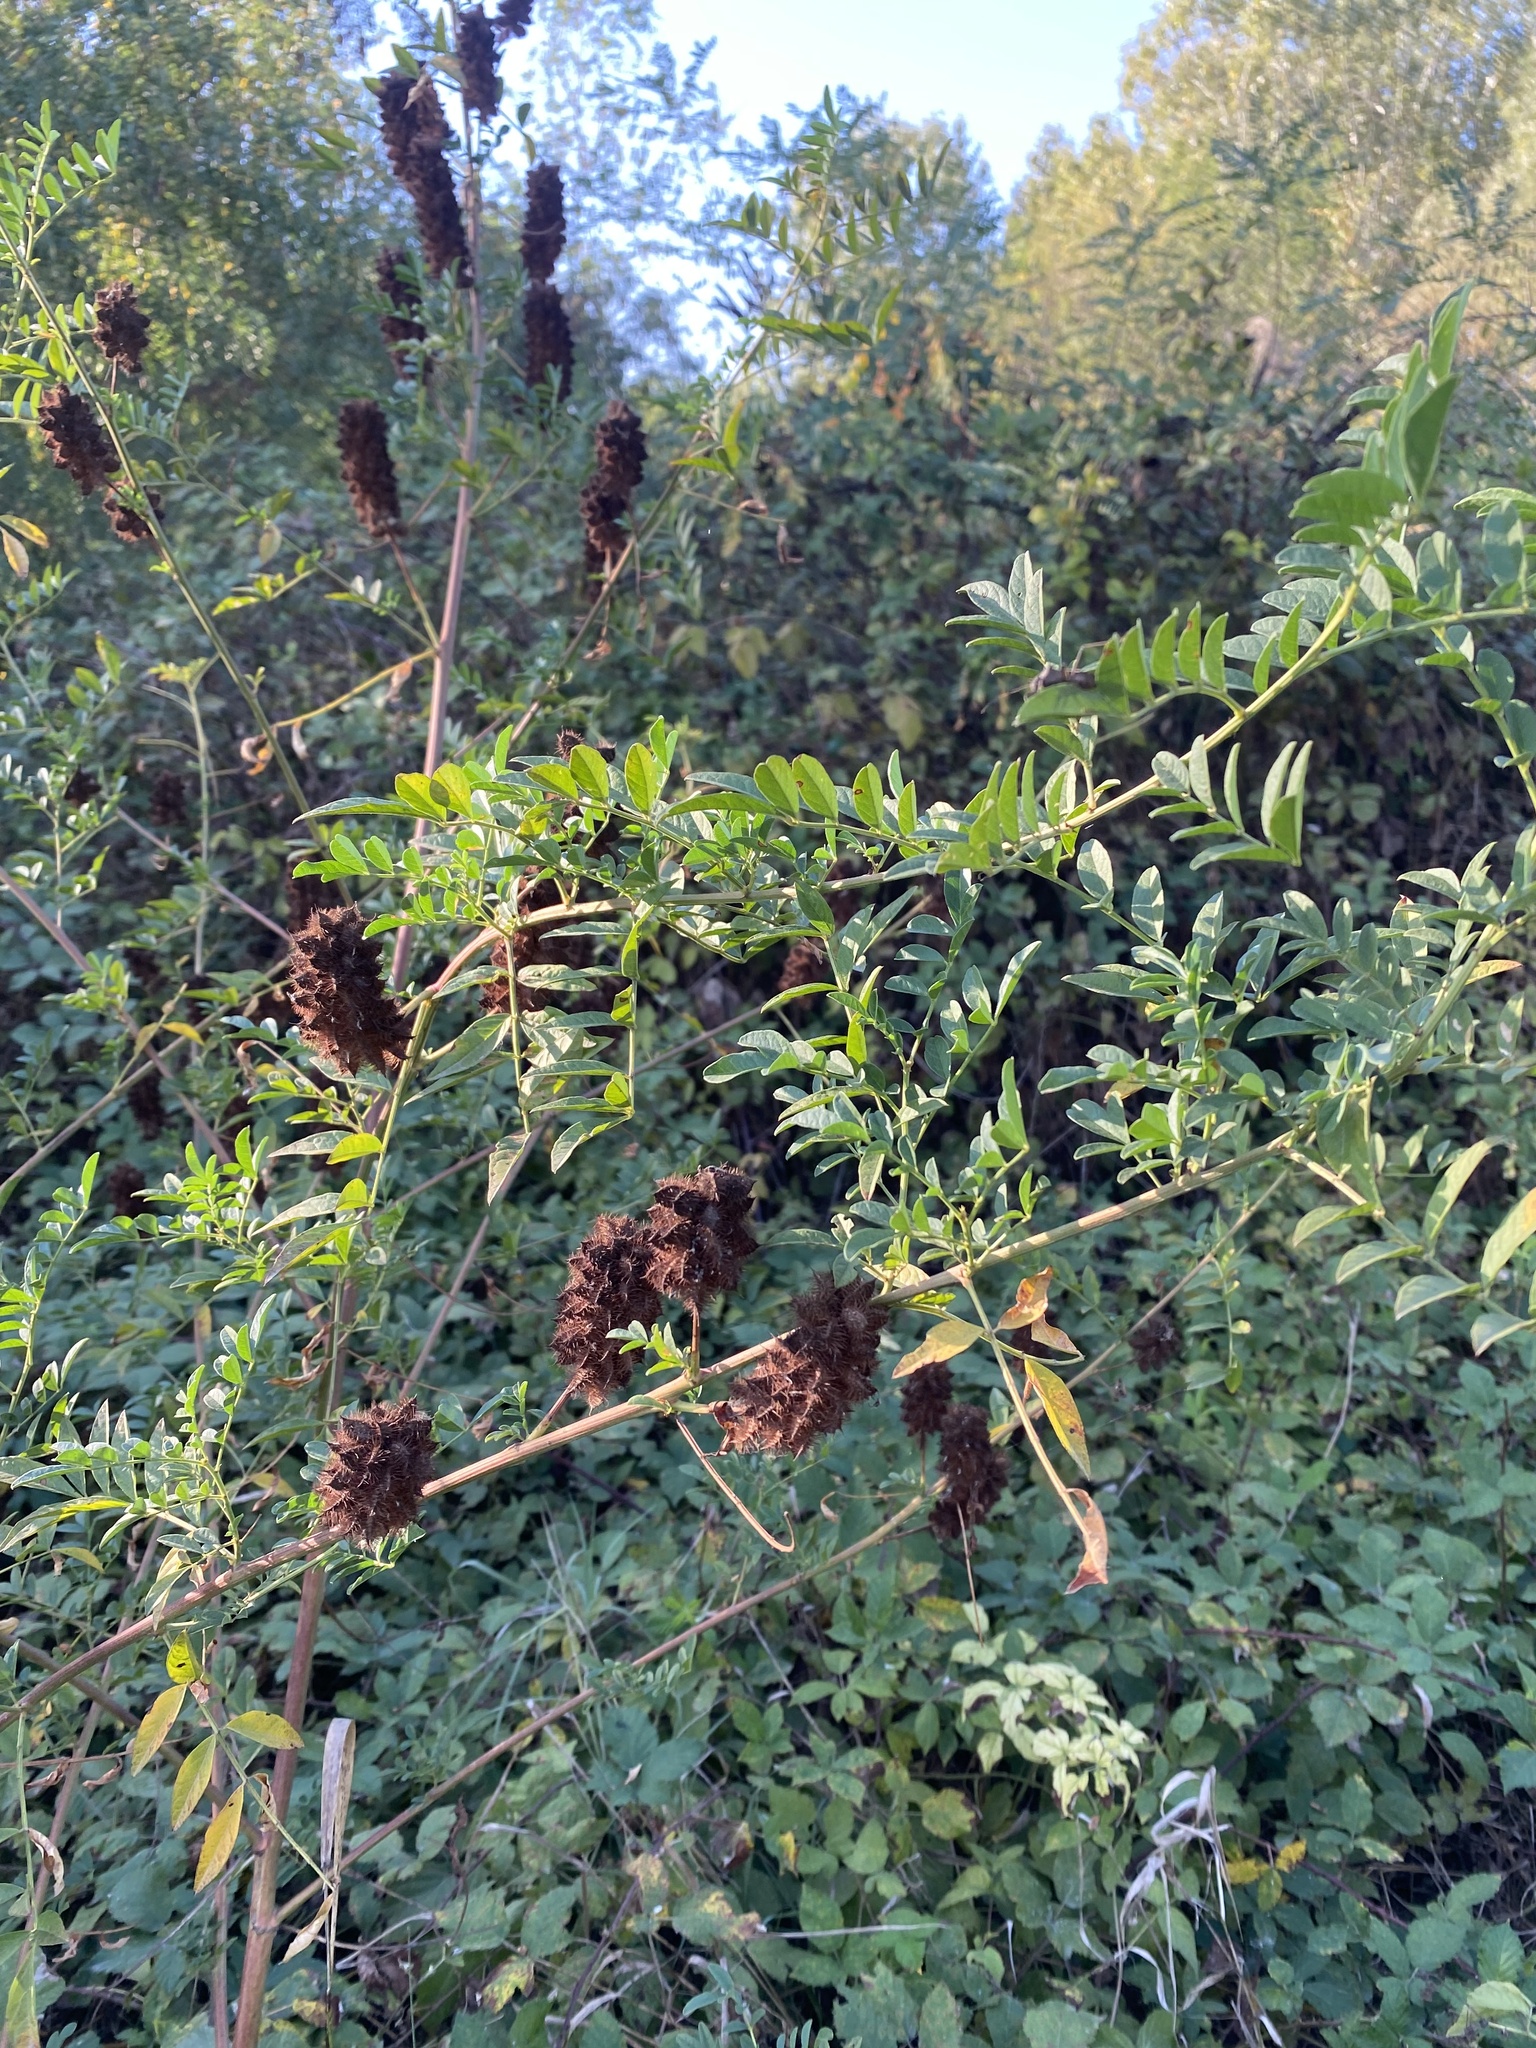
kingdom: Plantae
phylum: Tracheophyta
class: Magnoliopsida
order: Fabales
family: Fabaceae
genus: Glycyrrhiza
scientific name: Glycyrrhiza echinata
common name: German liquorice
